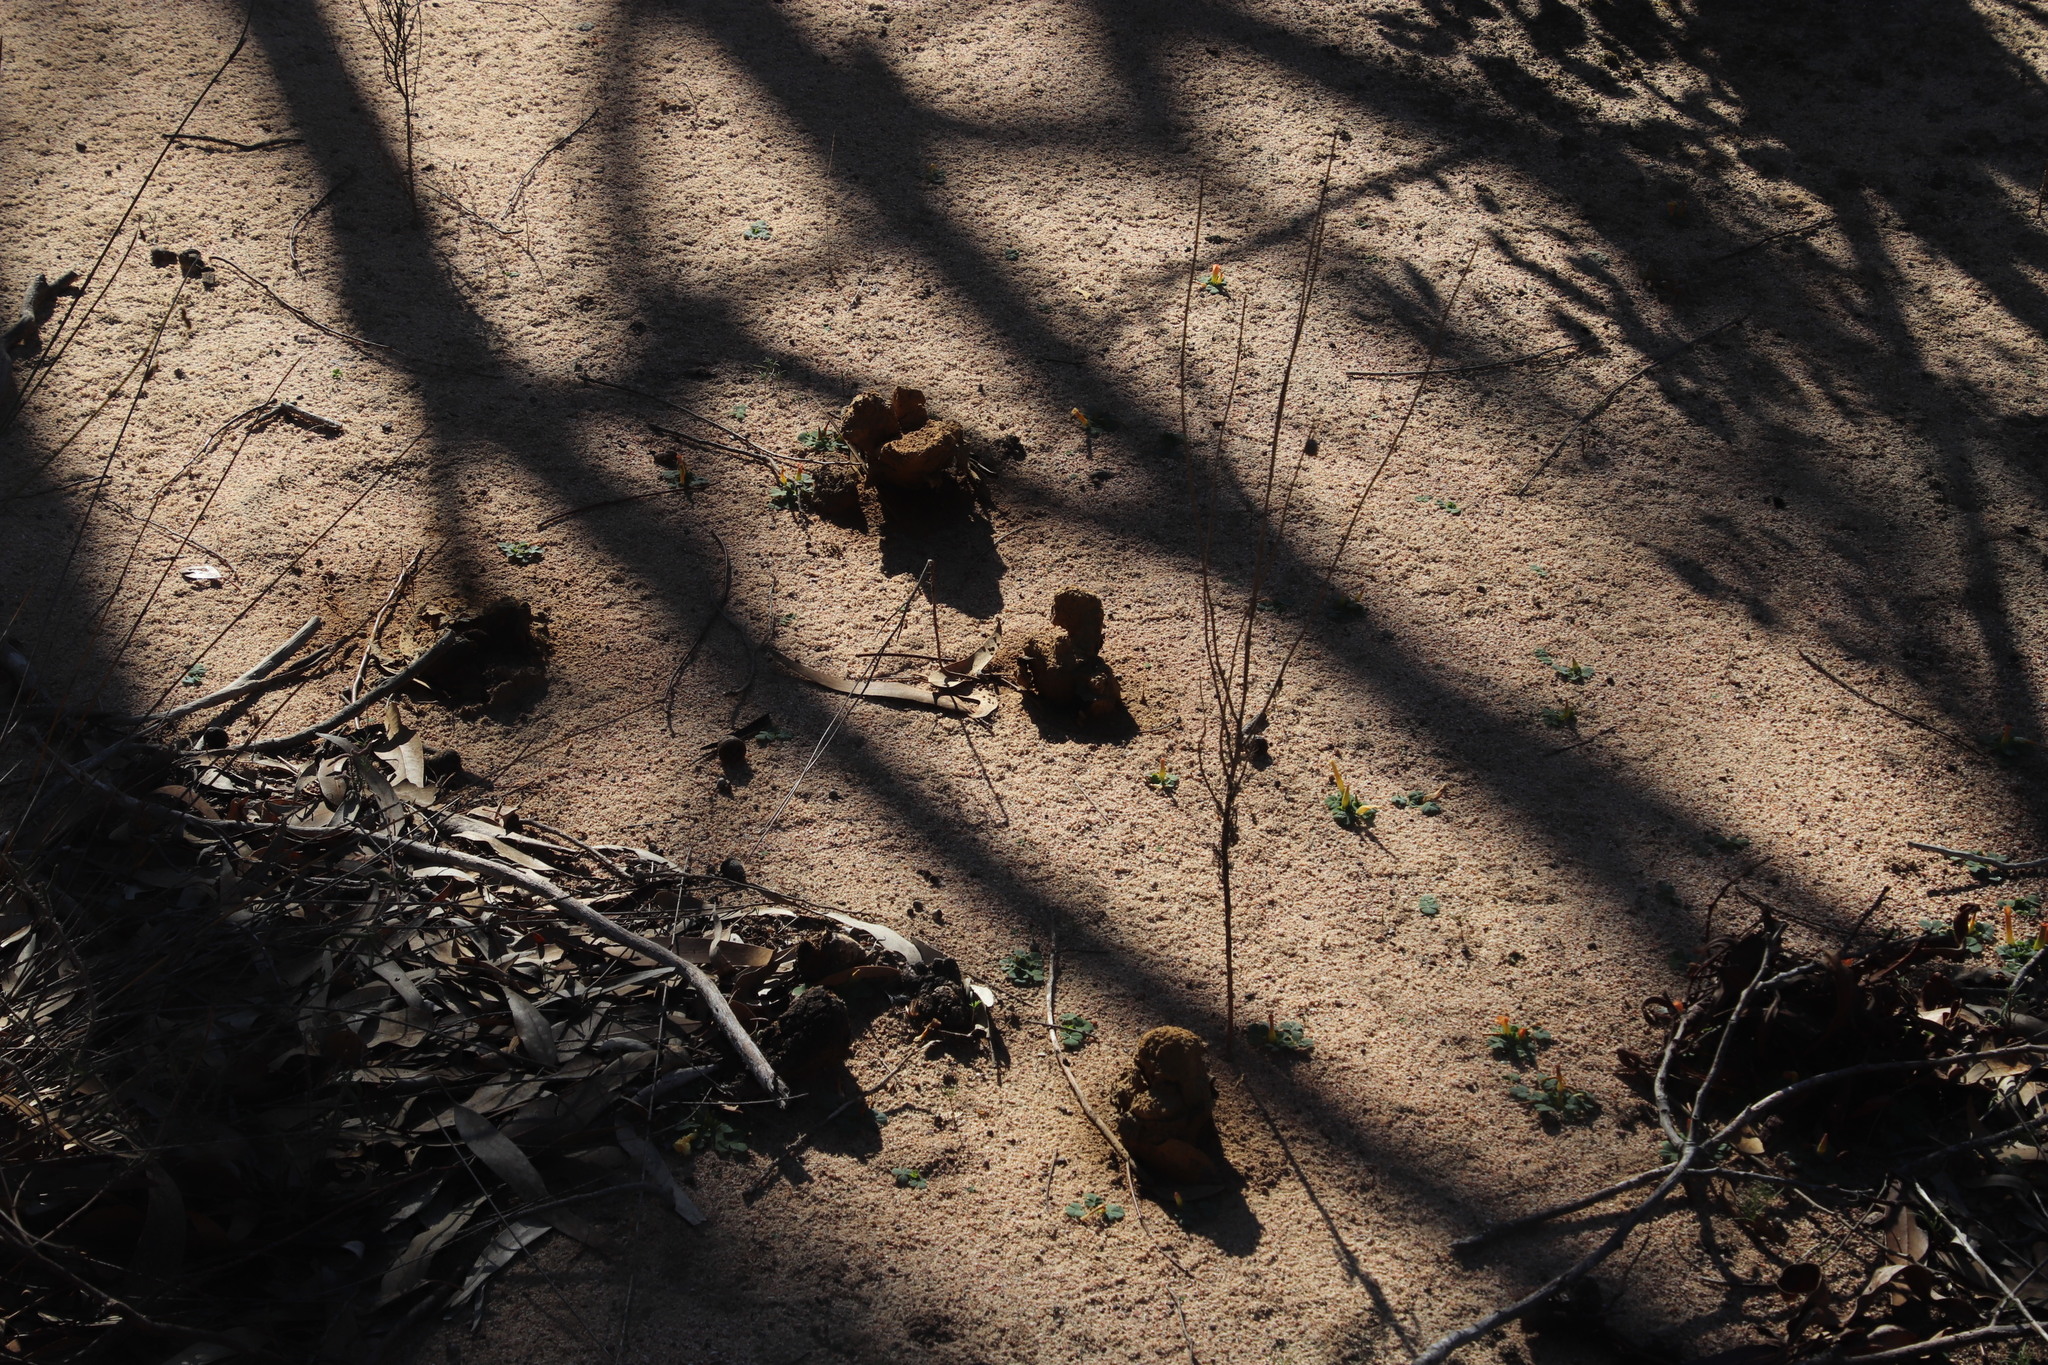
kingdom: Fungi
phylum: Basidiomycota
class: Agaricomycetes
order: Boletales
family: Sclerodermataceae
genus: Pisolithus
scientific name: Pisolithus arhizus
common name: Dyeball
